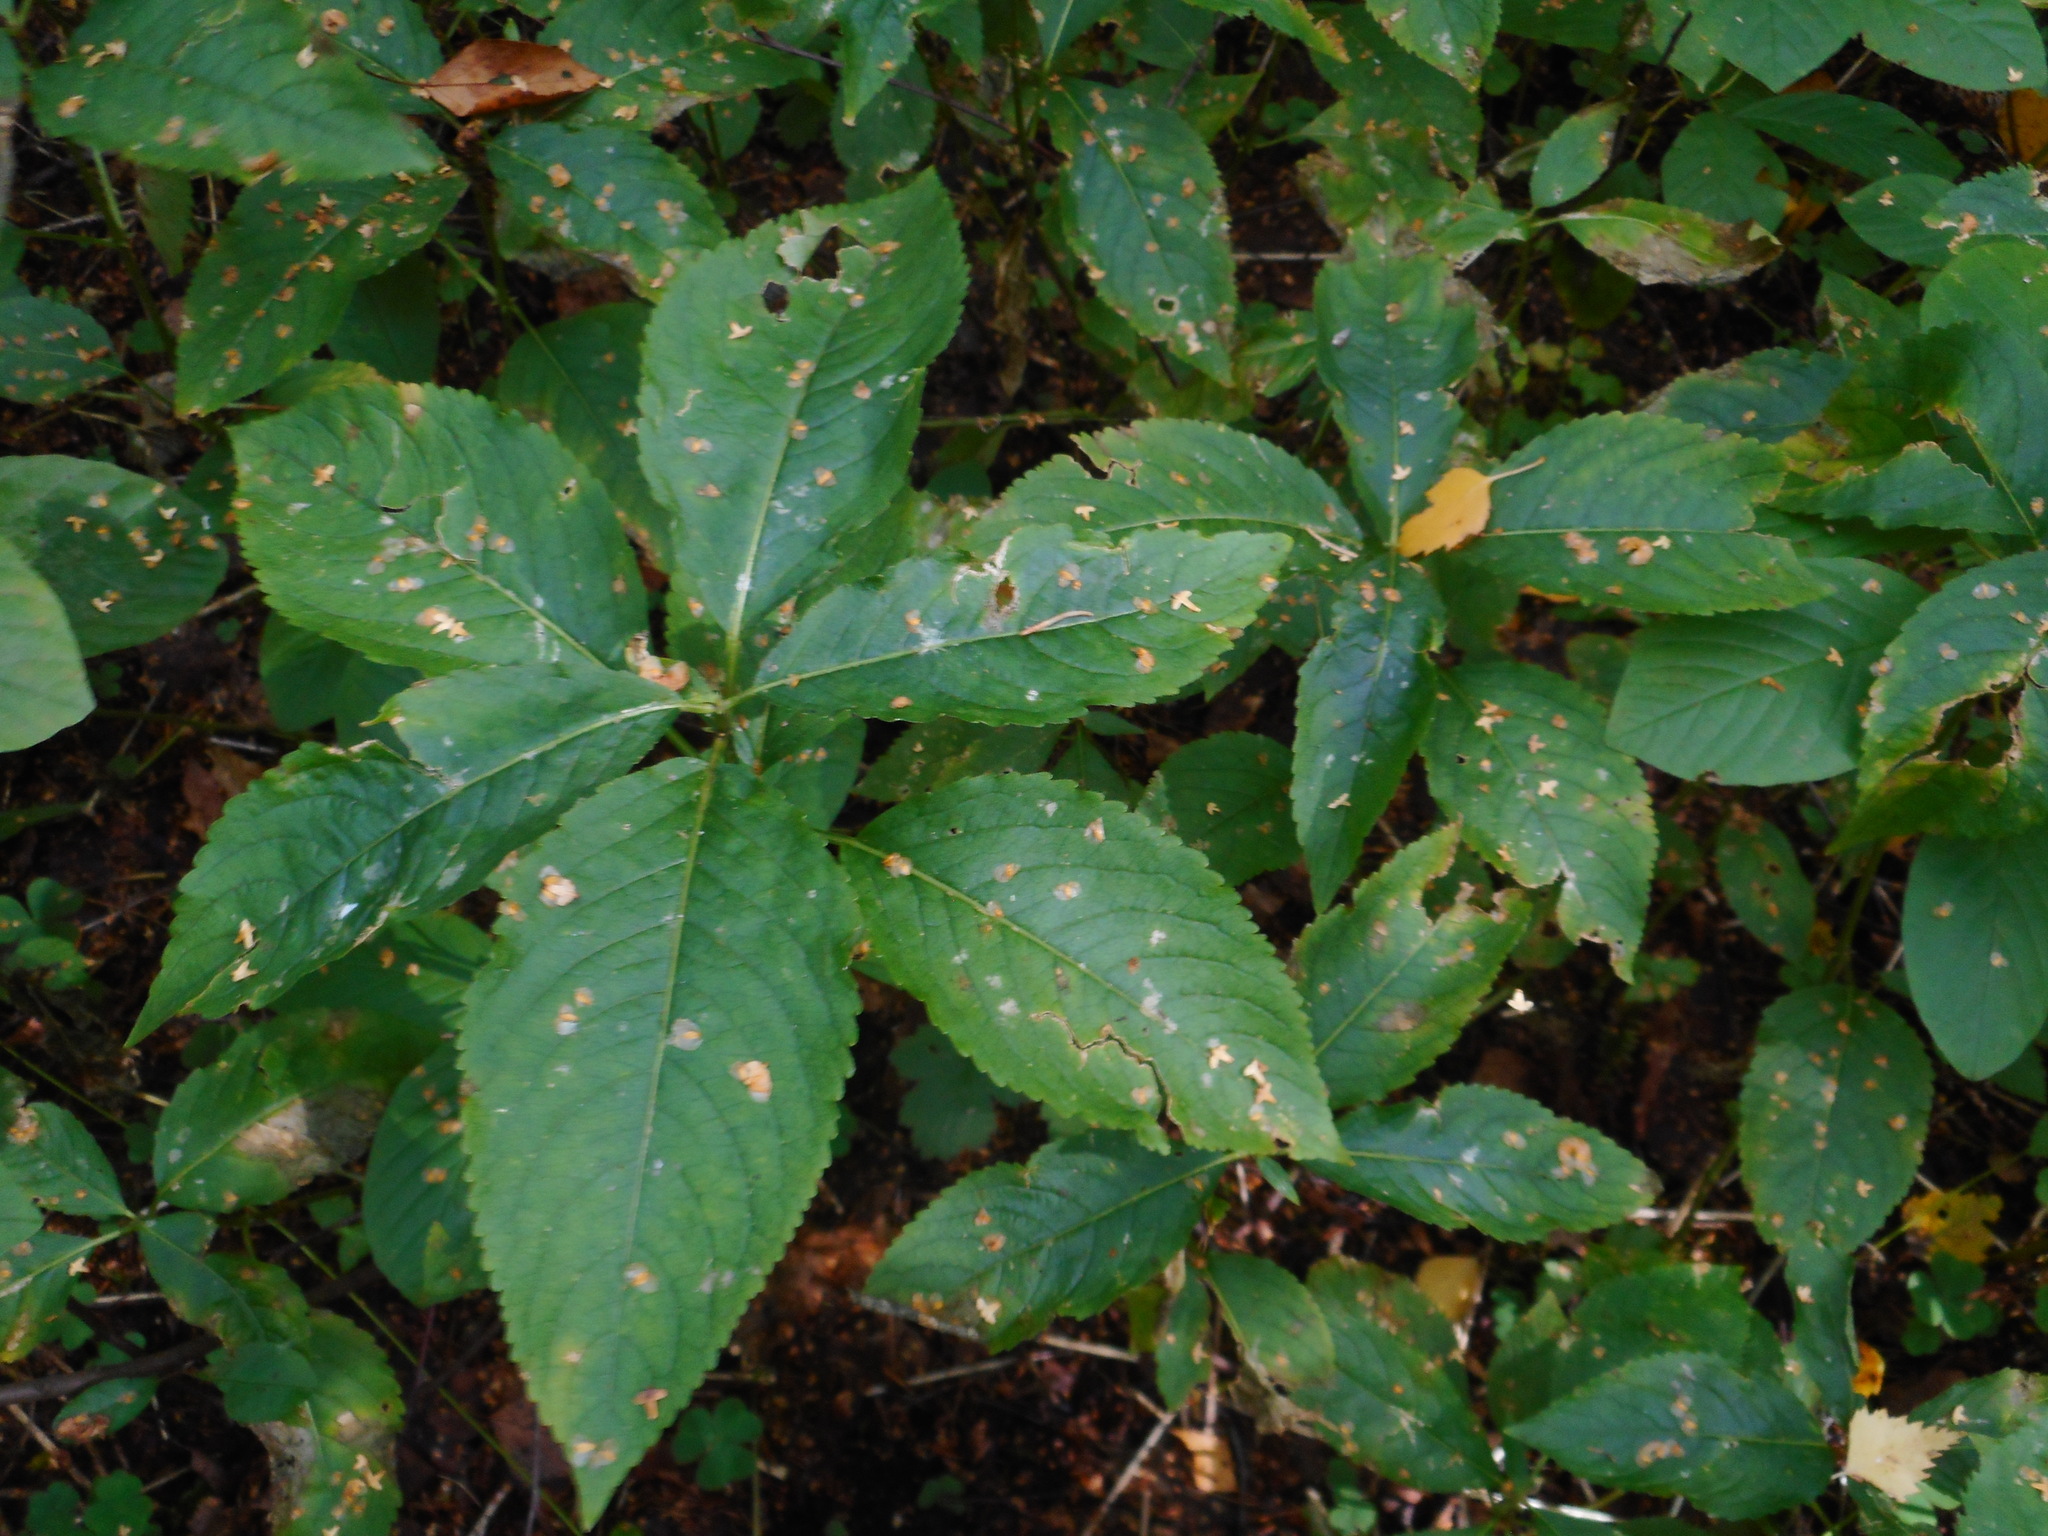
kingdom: Plantae
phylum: Tracheophyta
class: Magnoliopsida
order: Malpighiales
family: Euphorbiaceae
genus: Mercurialis
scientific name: Mercurialis perennis
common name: Dog mercury
